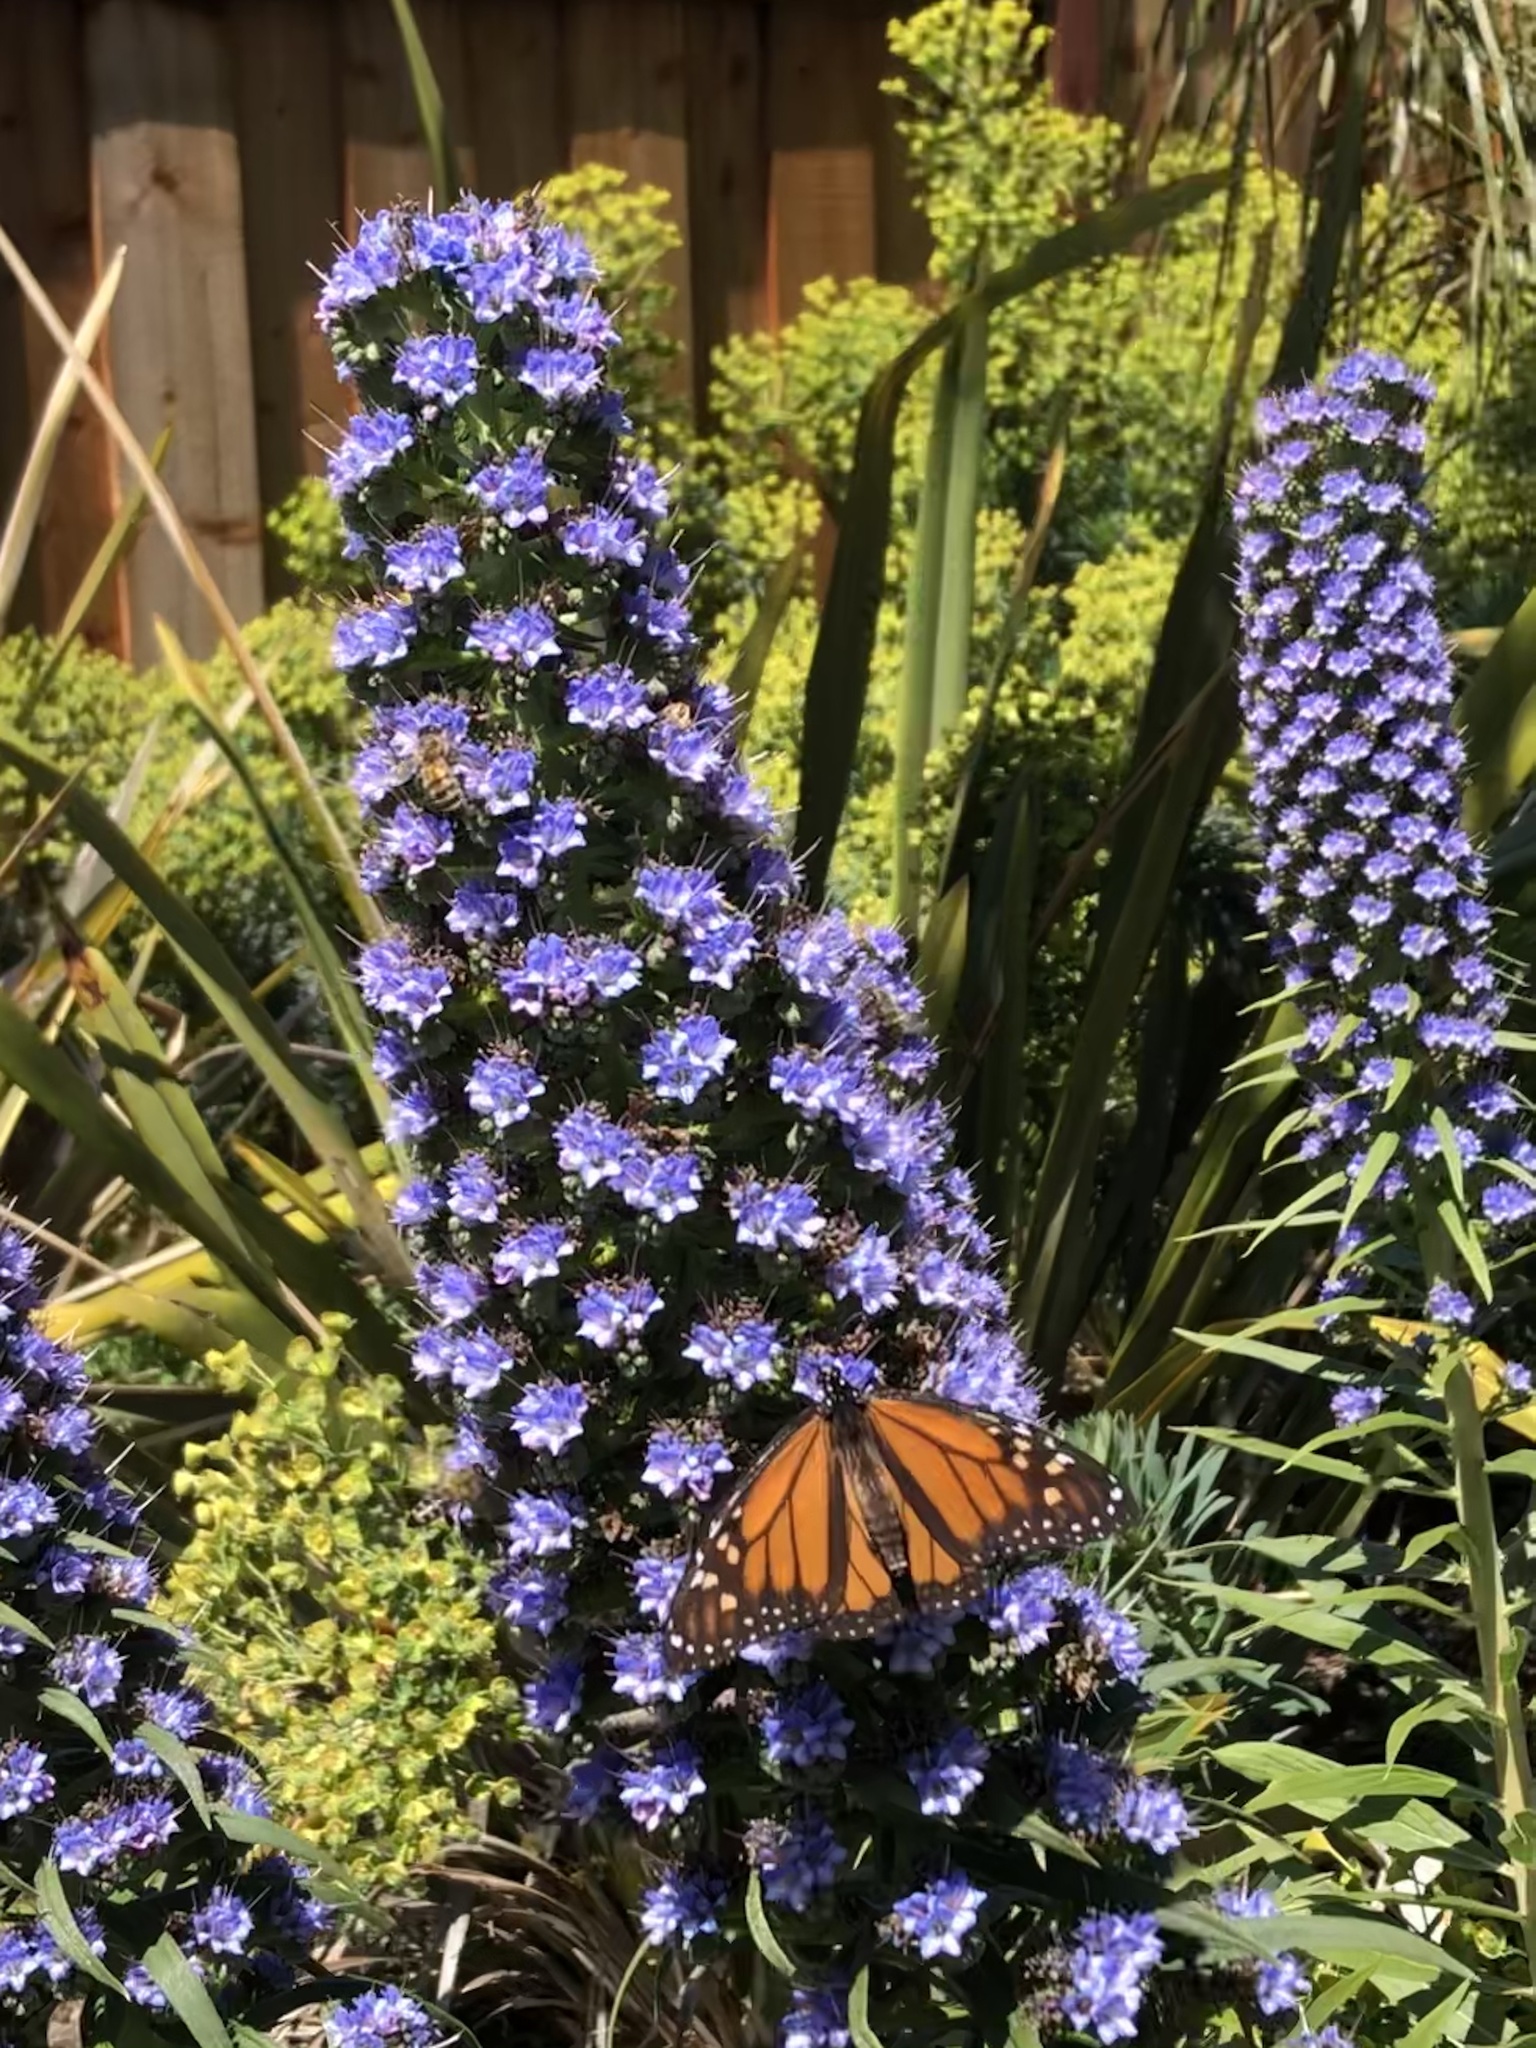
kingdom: Plantae
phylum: Tracheophyta
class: Magnoliopsida
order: Boraginales
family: Boraginaceae
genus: Echium
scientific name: Echium candicans
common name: Pride of madeira
